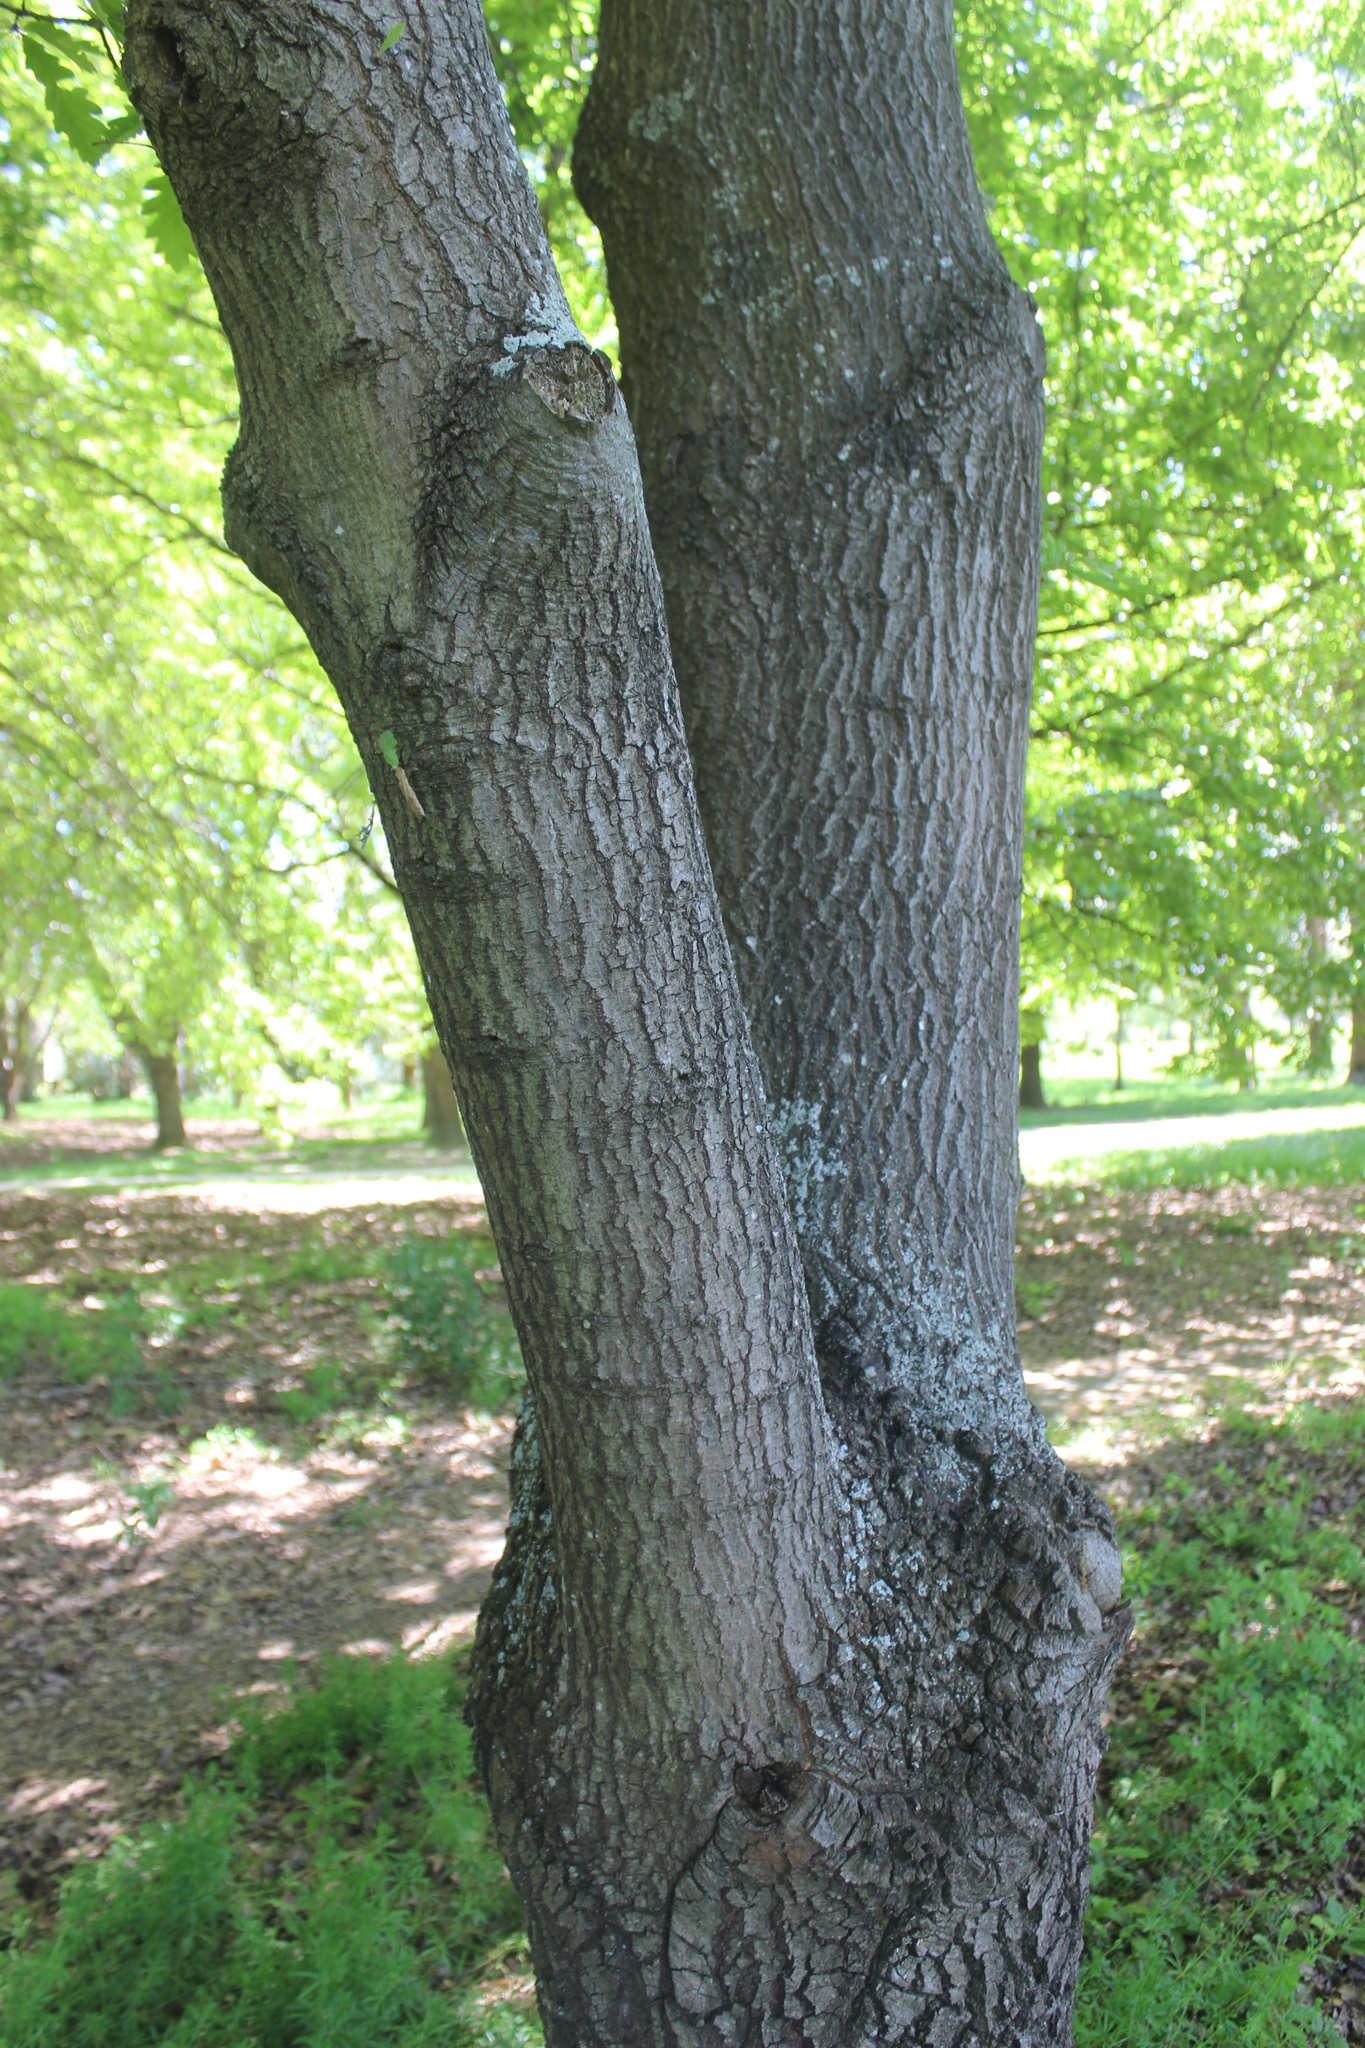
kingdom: Plantae
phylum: Tracheophyta
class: Magnoliopsida
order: Fagales
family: Fagaceae
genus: Quercus
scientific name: Quercus cerris
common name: Turkey oak
